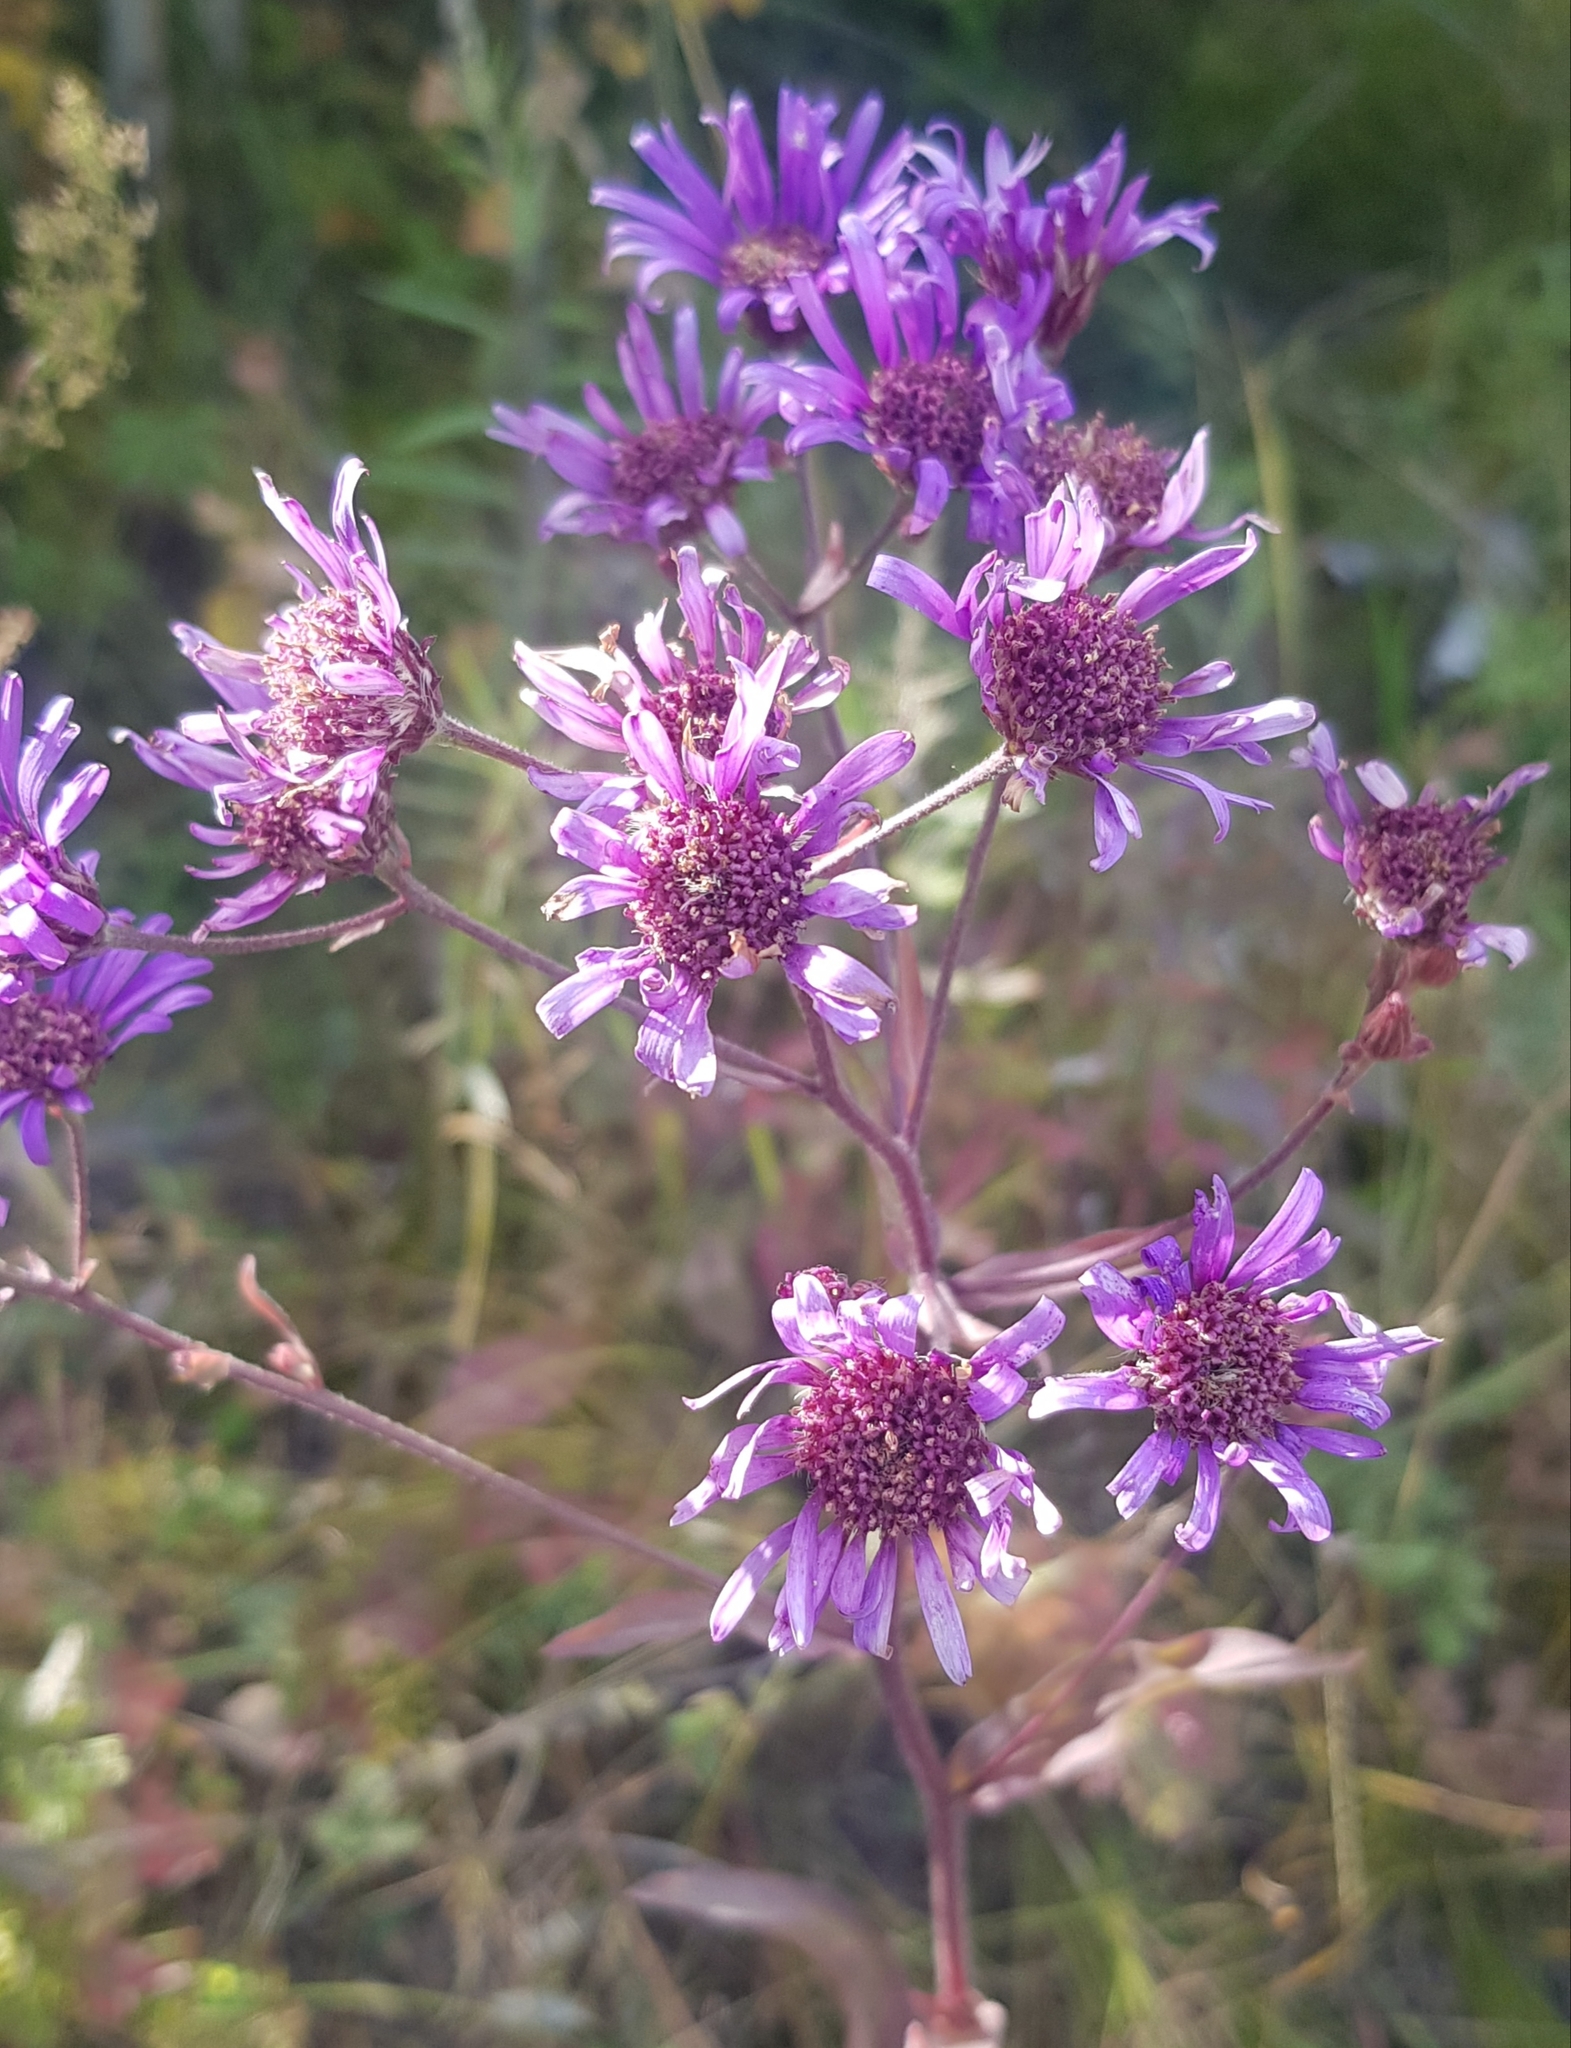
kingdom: Plantae
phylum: Tracheophyta
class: Magnoliopsida
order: Asterales
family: Asteraceae
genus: Aster
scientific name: Aster tataricus
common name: Tatarian aster
